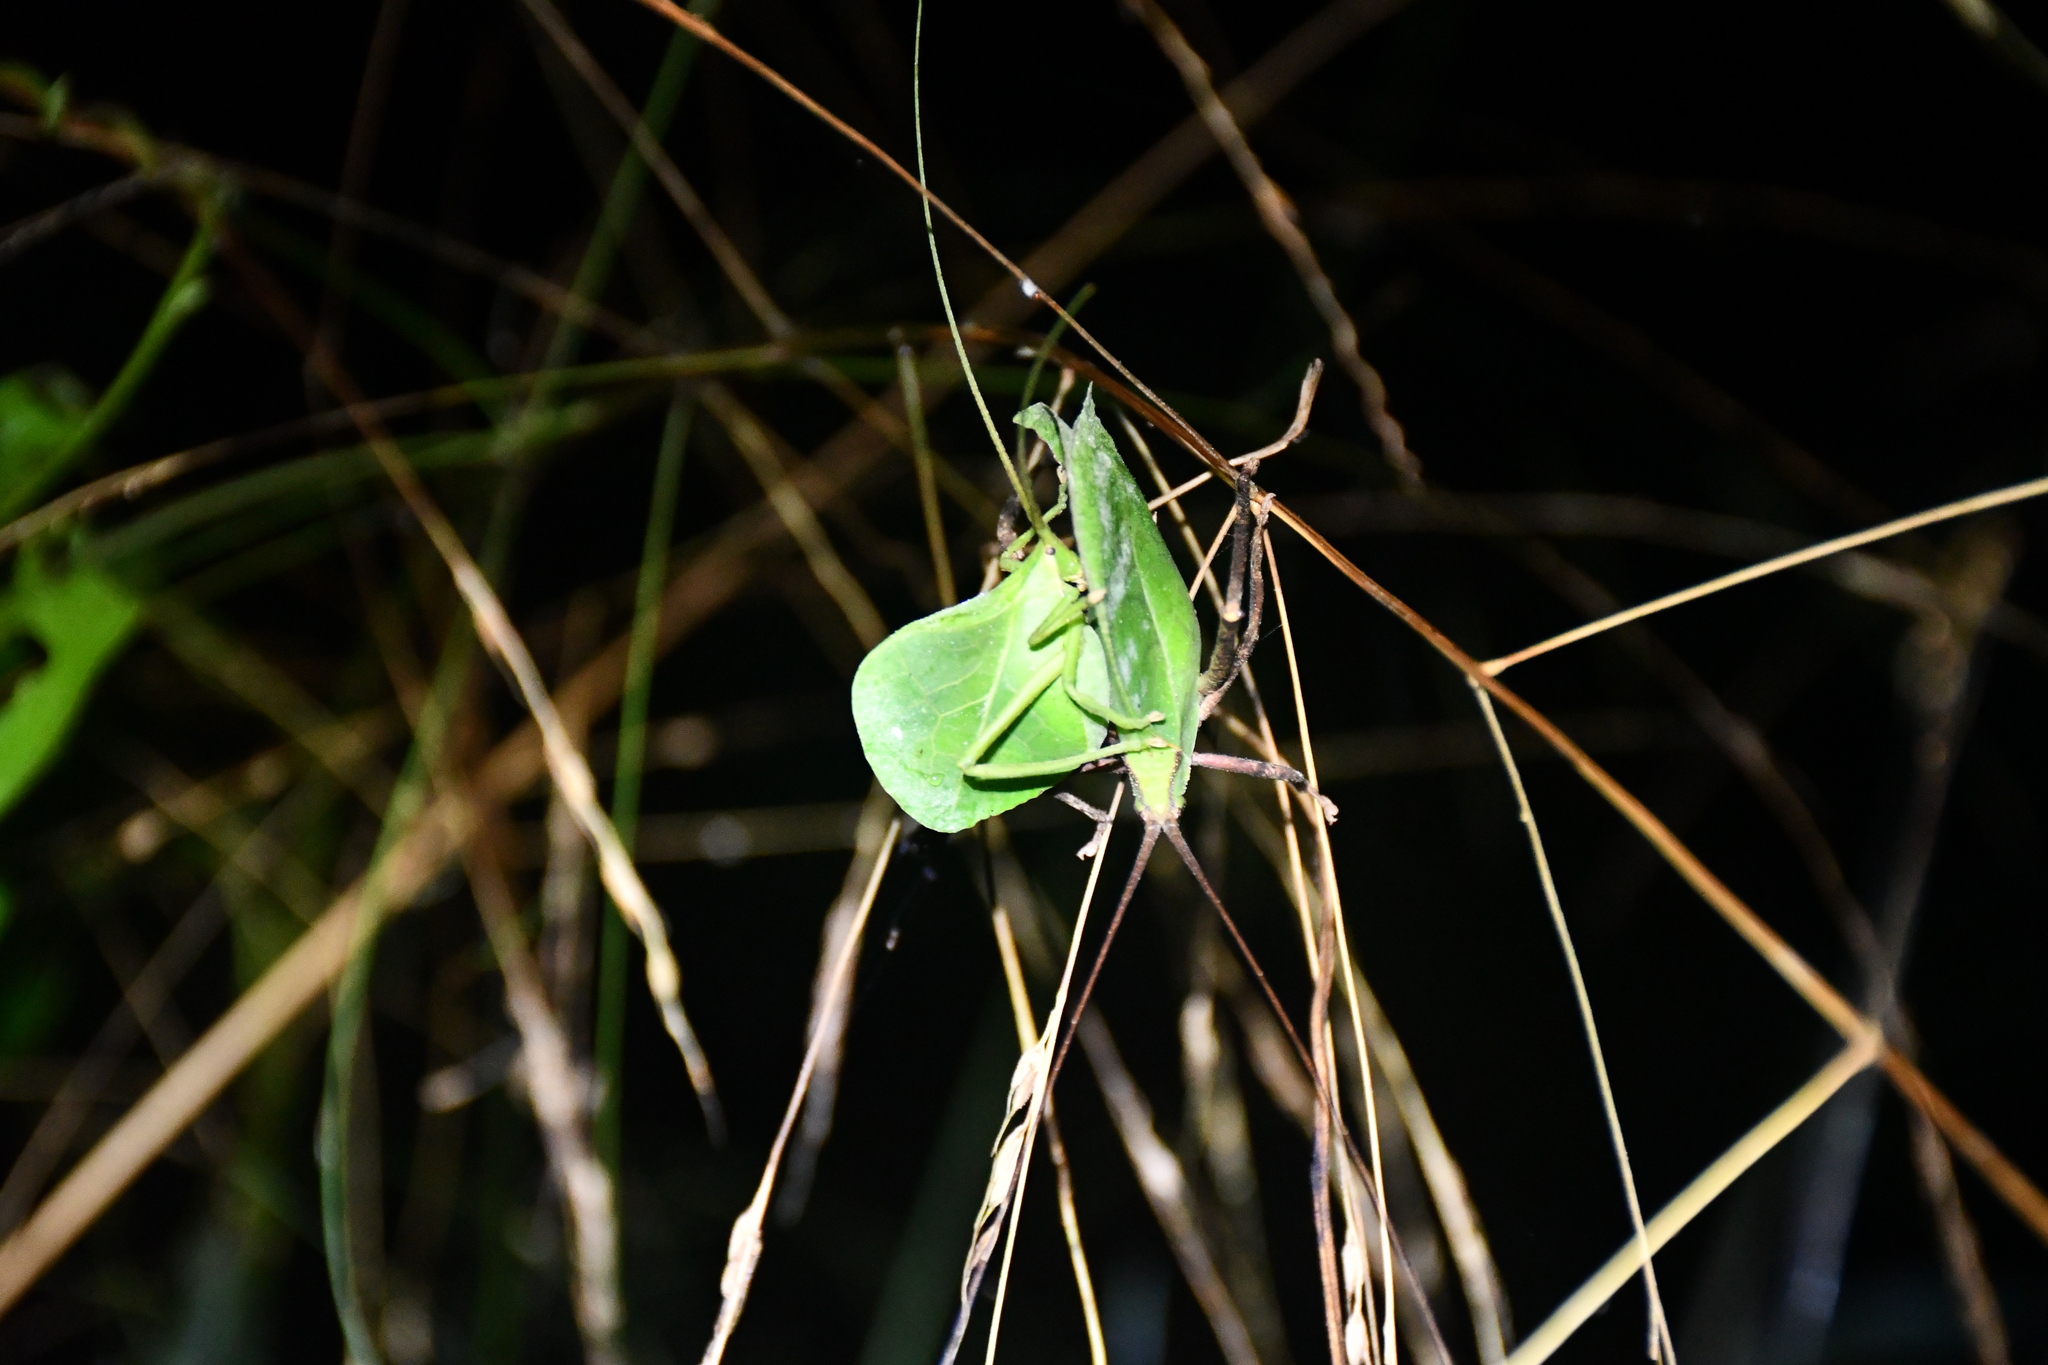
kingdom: Animalia
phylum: Arthropoda
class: Insecta
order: Orthoptera
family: Tettigoniidae
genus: Roxelana
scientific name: Roxelana crassicornis
